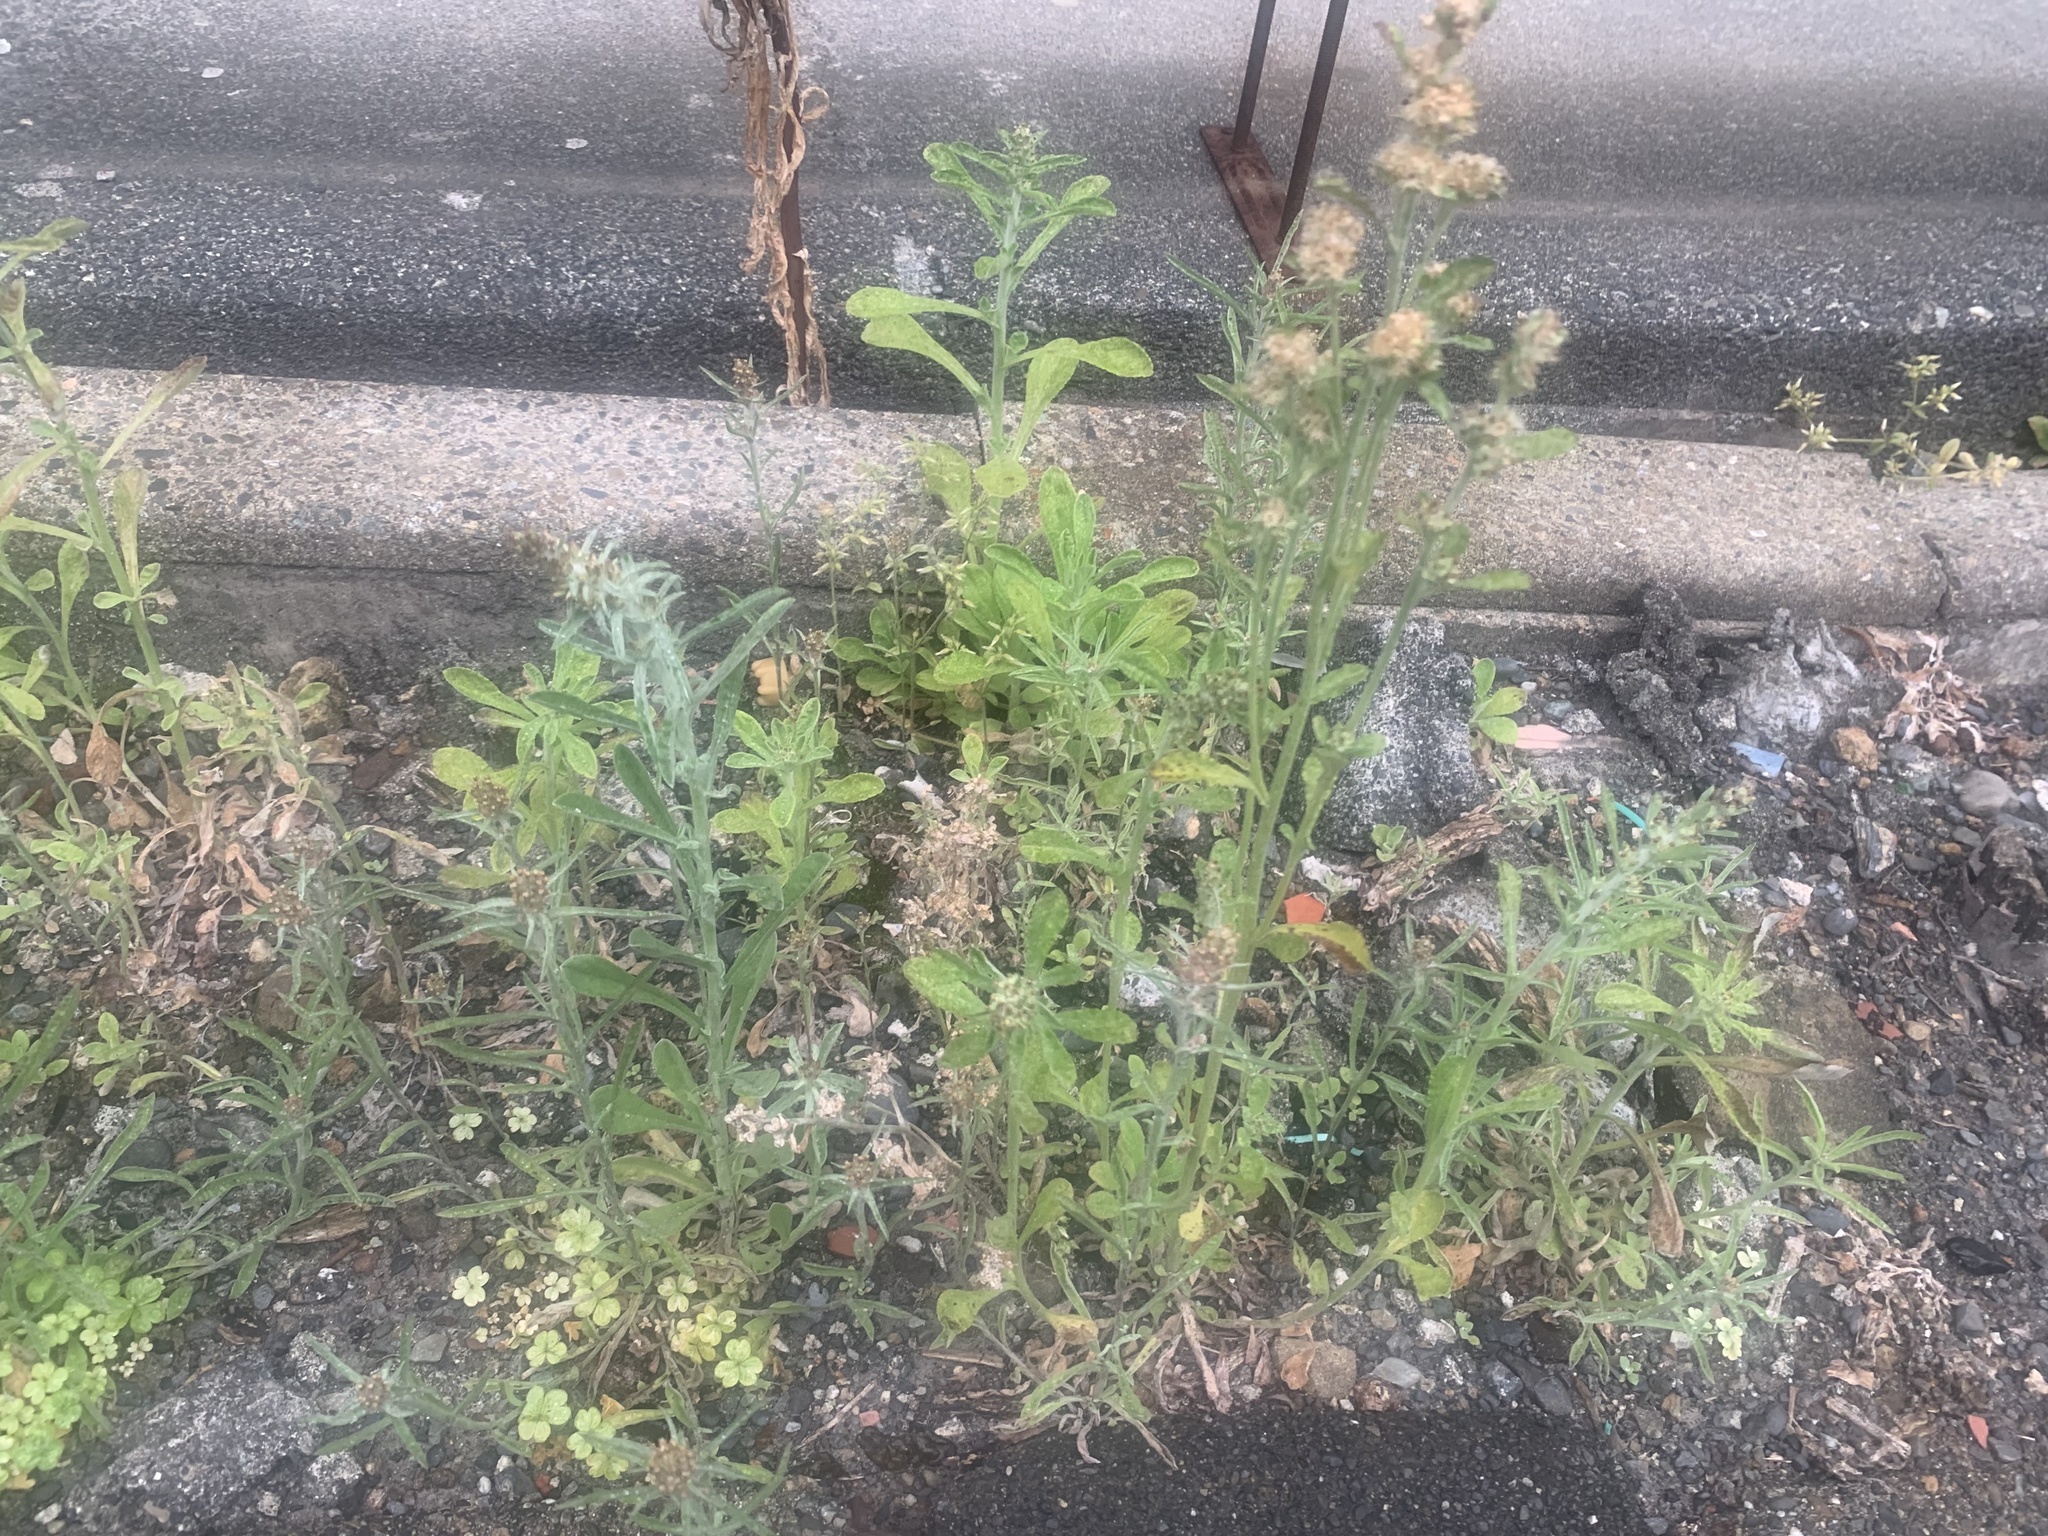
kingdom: Plantae
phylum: Tracheophyta
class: Magnoliopsida
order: Asterales
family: Asteraceae
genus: Gamochaeta
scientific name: Gamochaeta pensylvanica
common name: Pennsylvania everlasting
